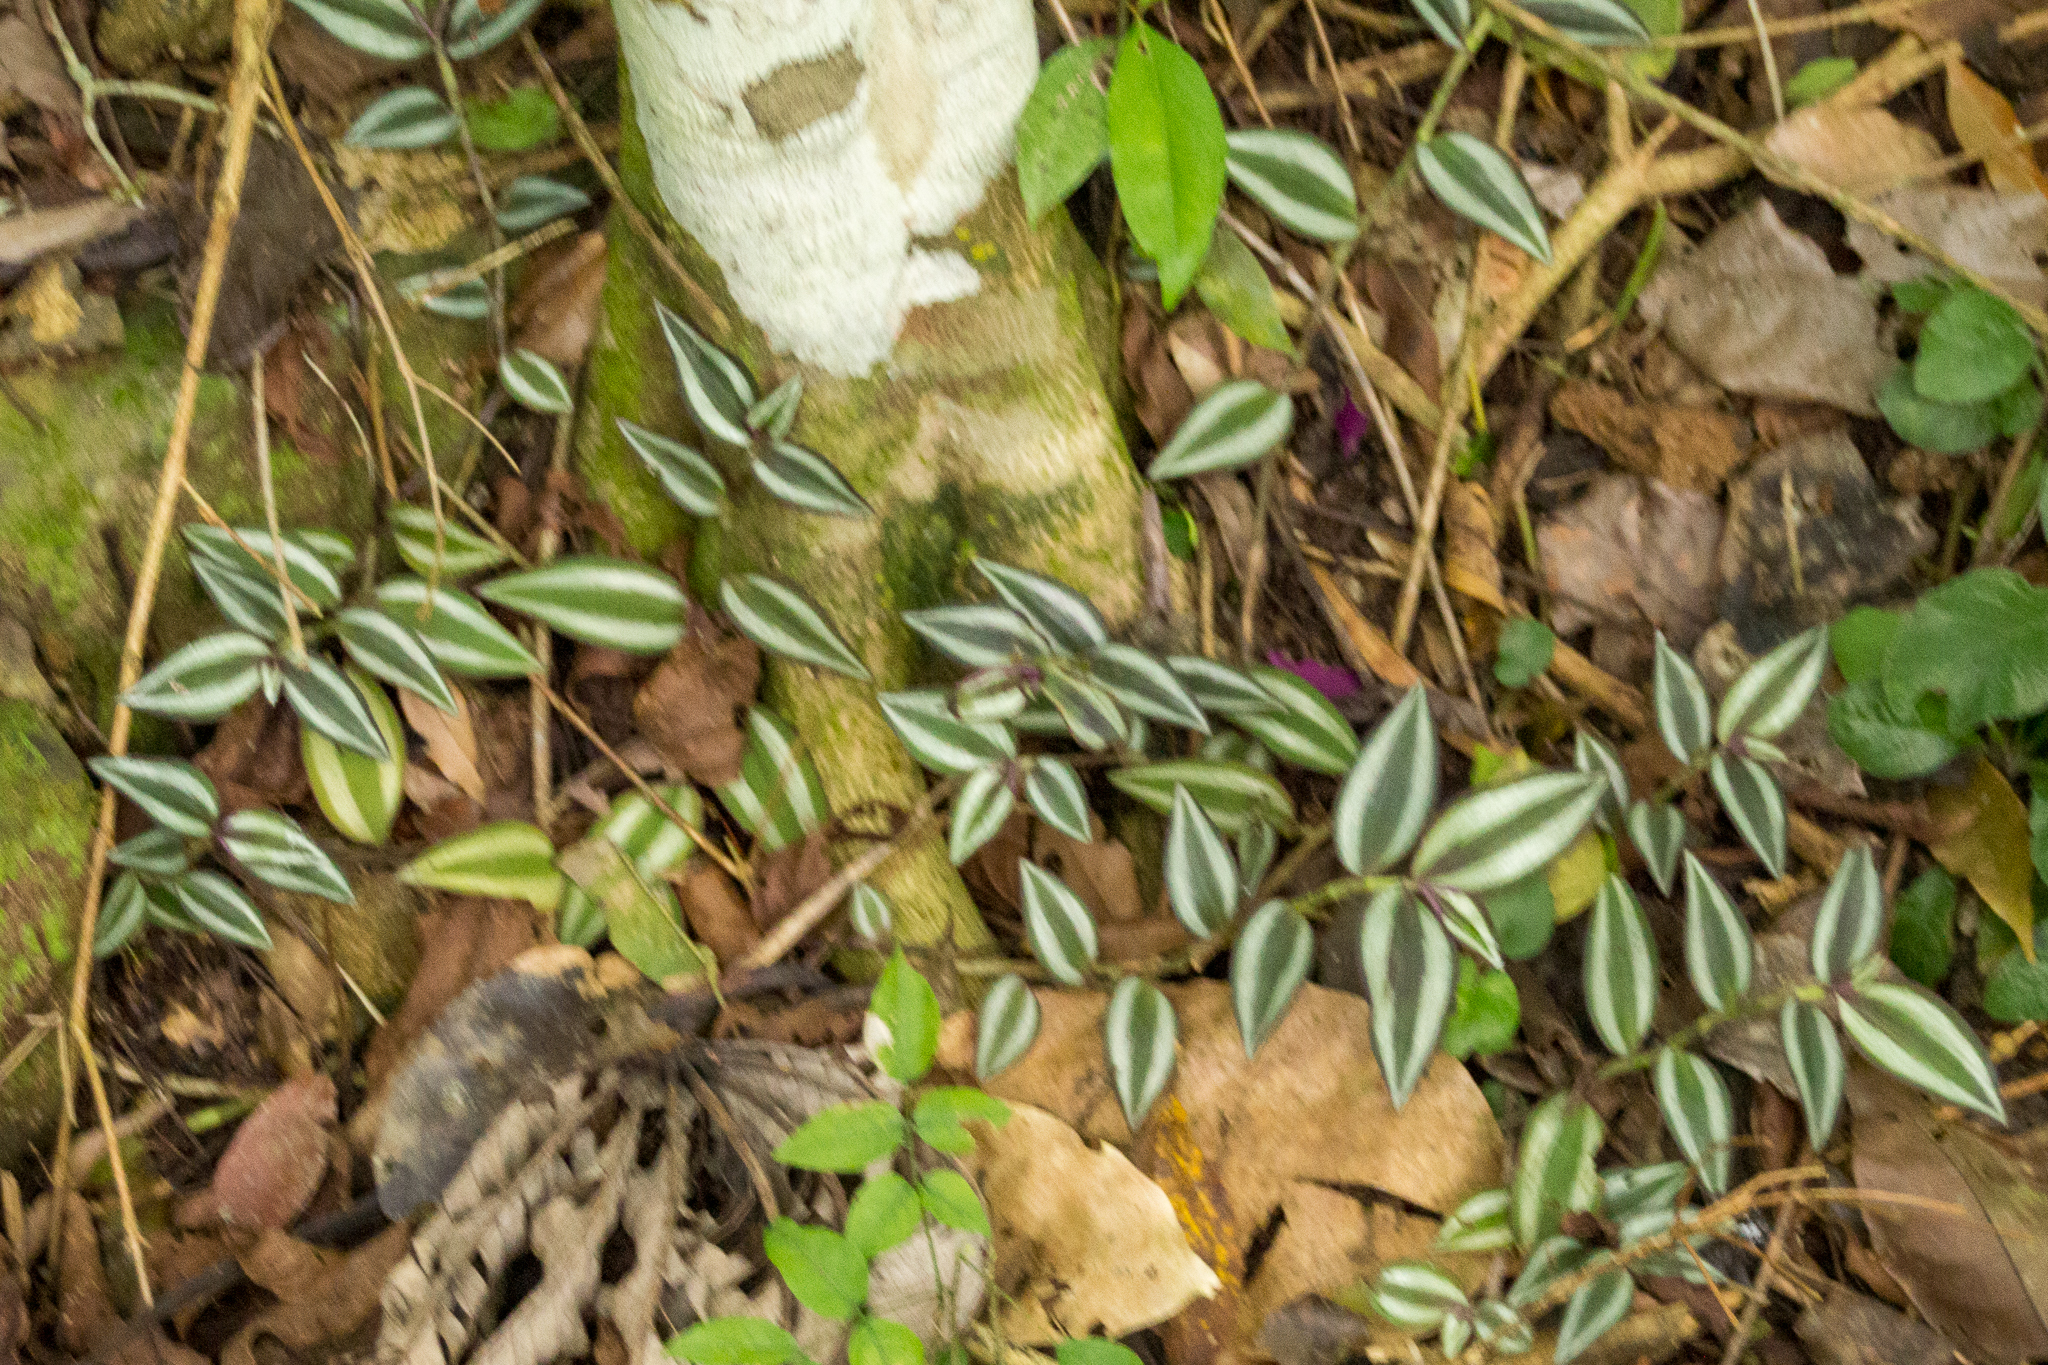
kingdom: Plantae
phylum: Tracheophyta
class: Liliopsida
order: Commelinales
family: Commelinaceae
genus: Tradescantia
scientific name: Tradescantia zebrina
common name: Inchplant
